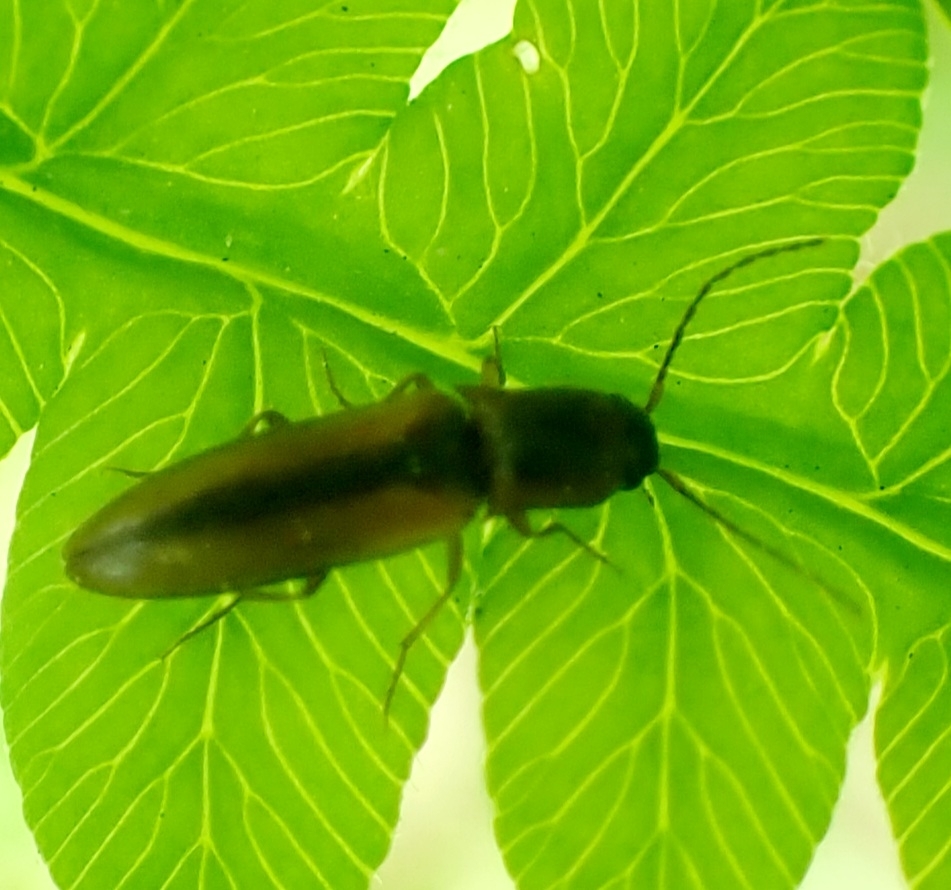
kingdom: Animalia
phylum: Arthropoda
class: Insecta
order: Coleoptera
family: Elateridae
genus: Dalopius
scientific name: Dalopius marginatus
